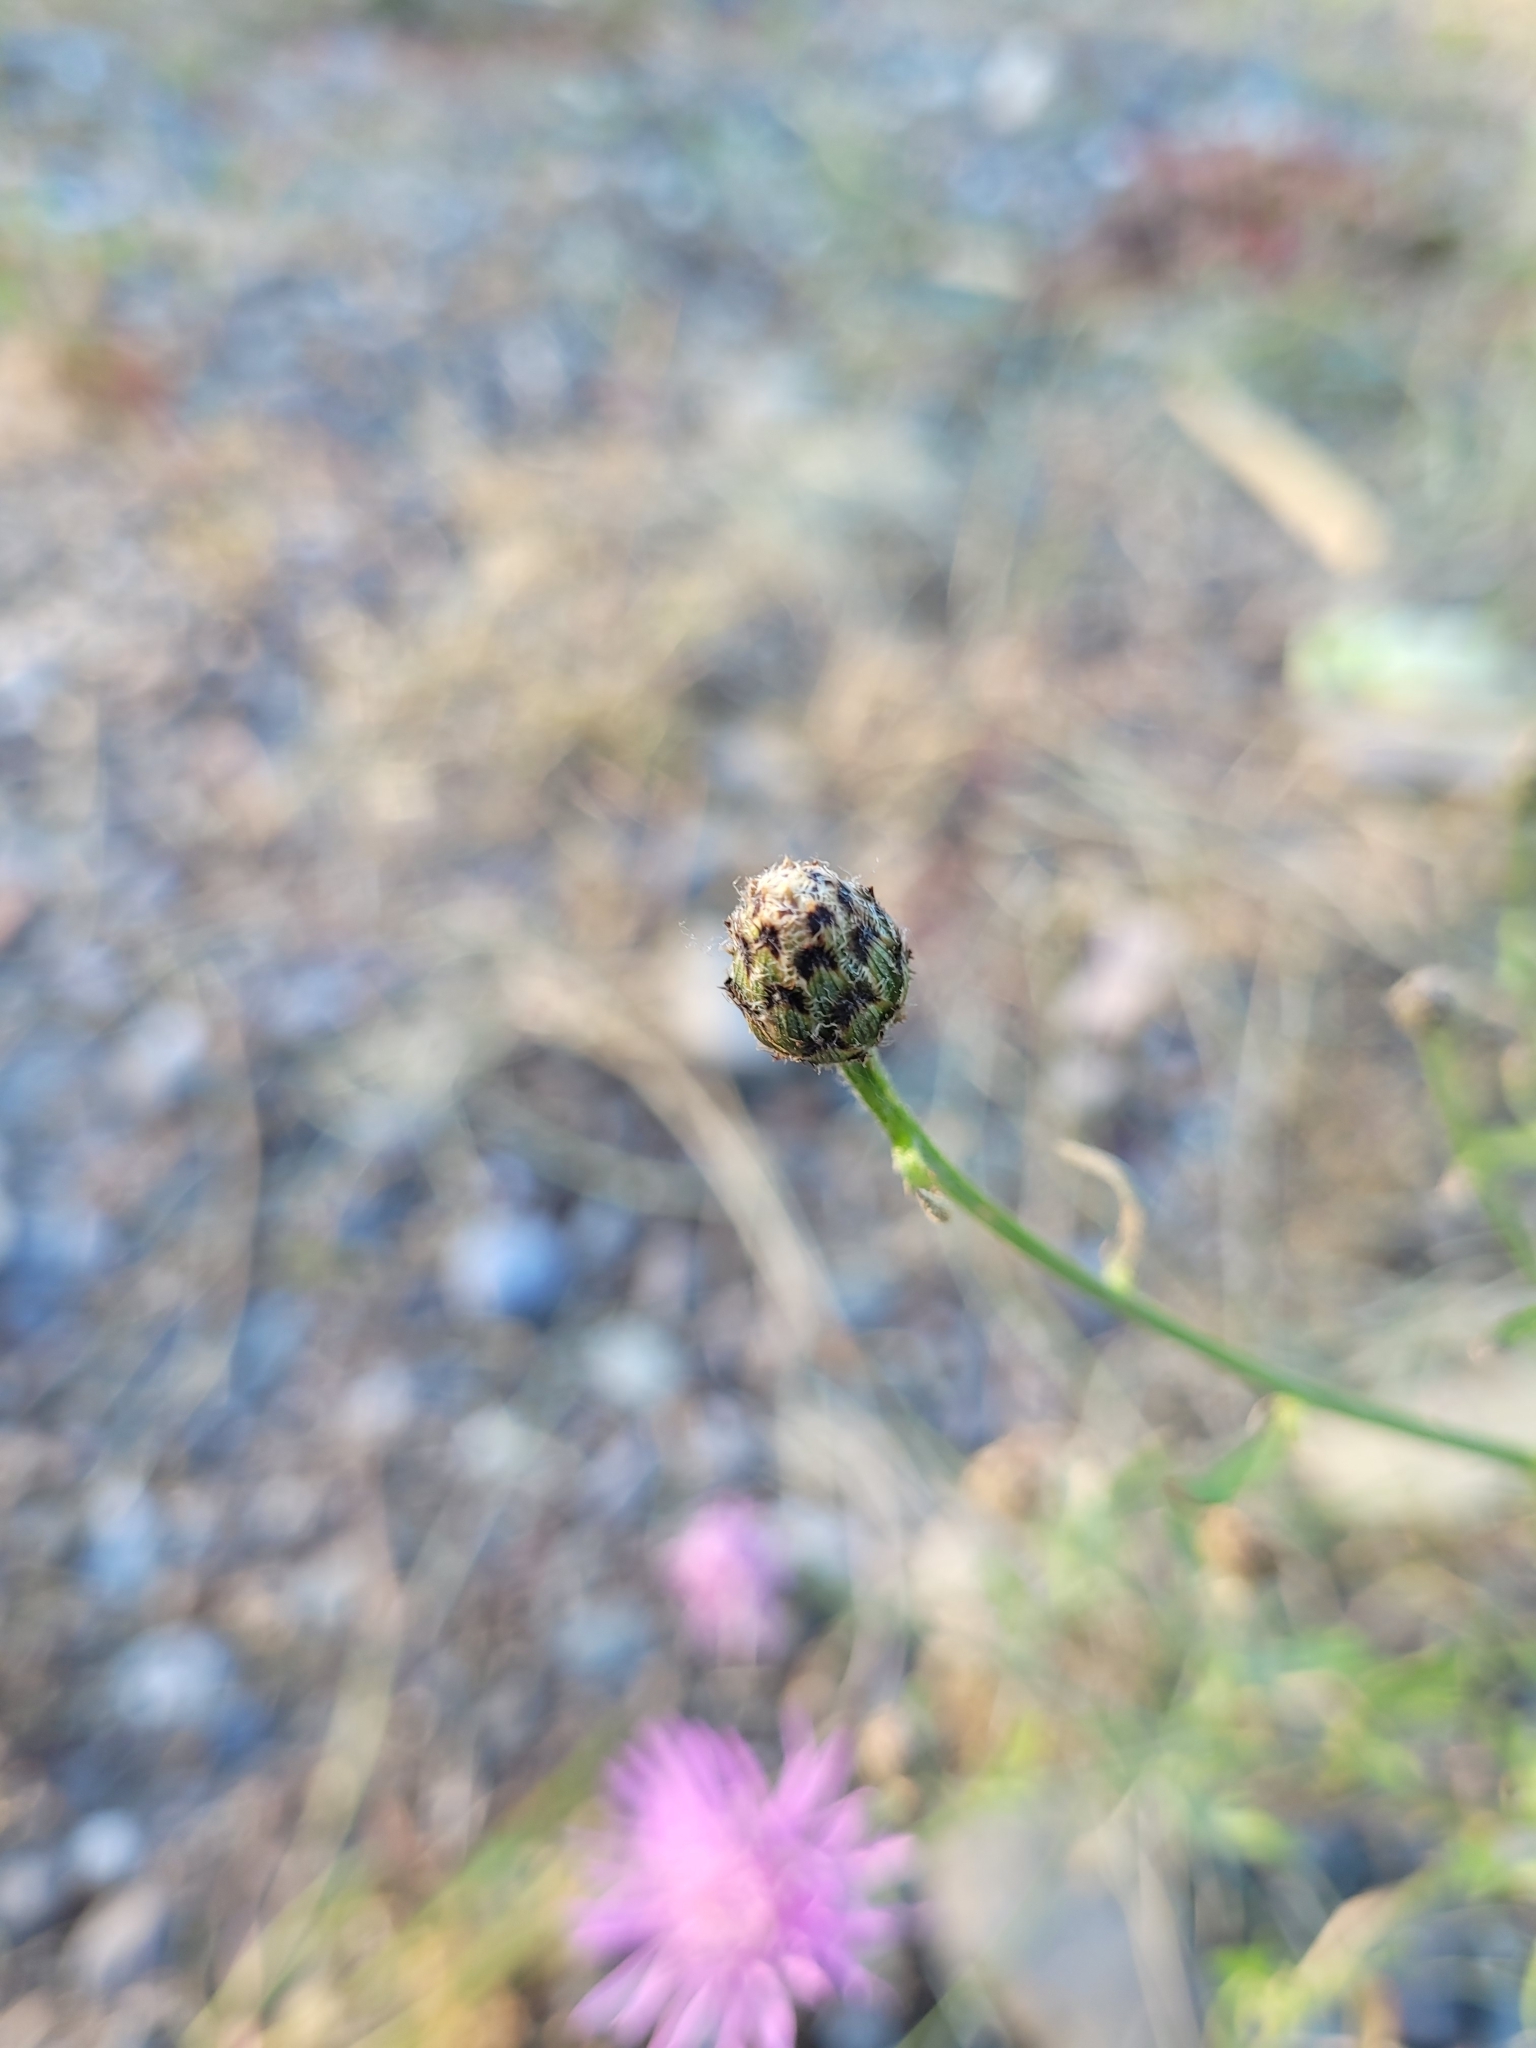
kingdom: Plantae
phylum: Tracheophyta
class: Magnoliopsida
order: Asterales
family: Asteraceae
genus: Centaurea
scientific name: Centaurea stoebe
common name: Spotted knapweed
